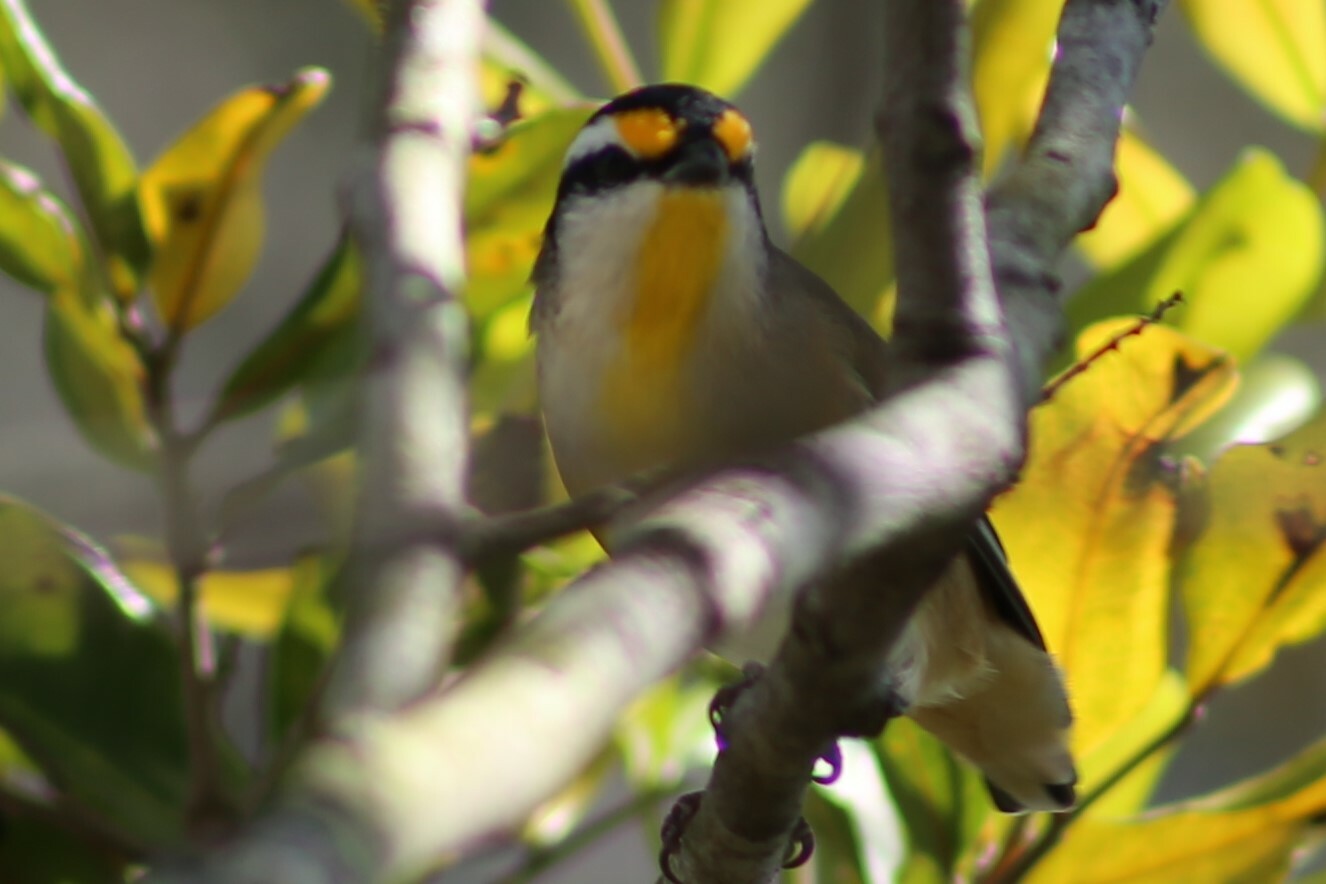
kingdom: Animalia
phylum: Chordata
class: Aves
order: Passeriformes
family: Pardalotidae
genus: Pardalotus
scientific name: Pardalotus striatus
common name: Striated pardalote
